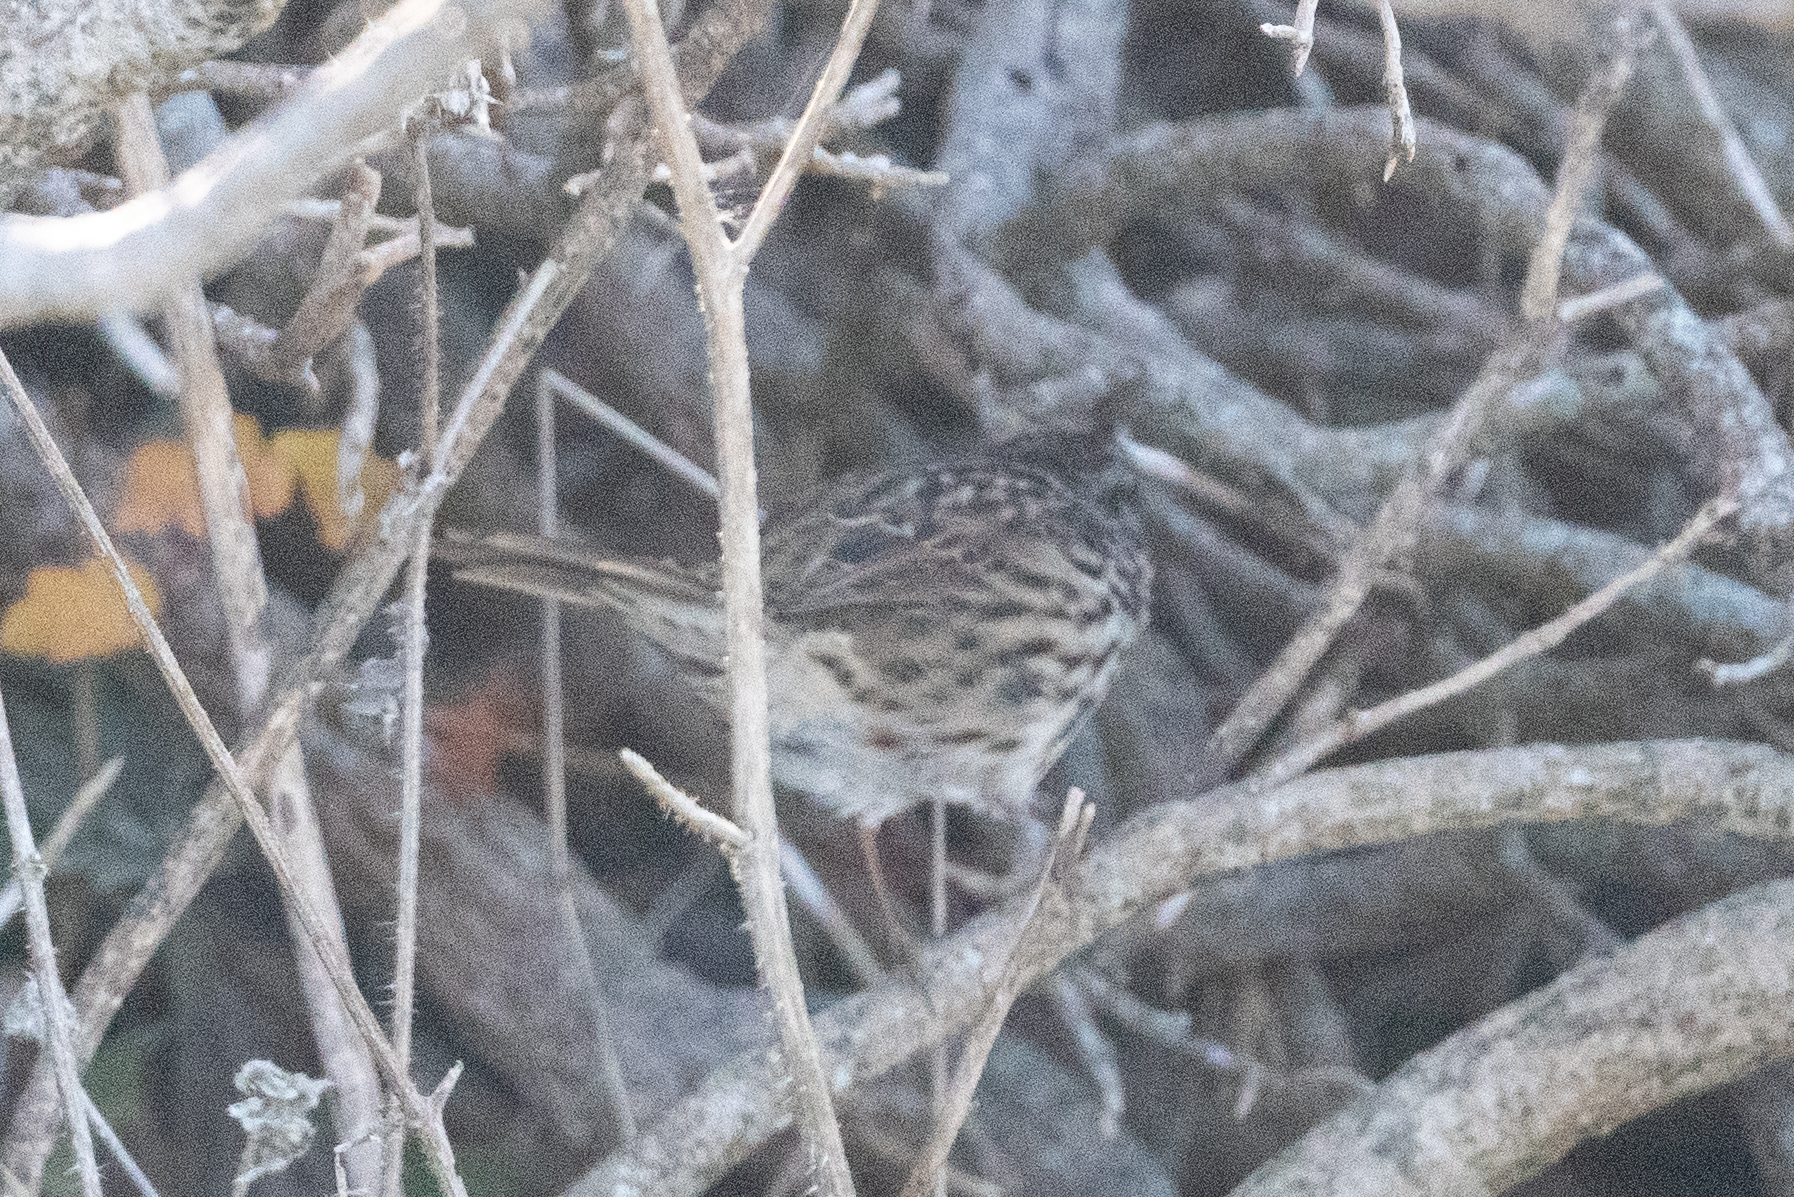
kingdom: Animalia
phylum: Chordata
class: Aves
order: Passeriformes
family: Passerellidae
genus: Melospiza
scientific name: Melospiza melodia
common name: Song sparrow
